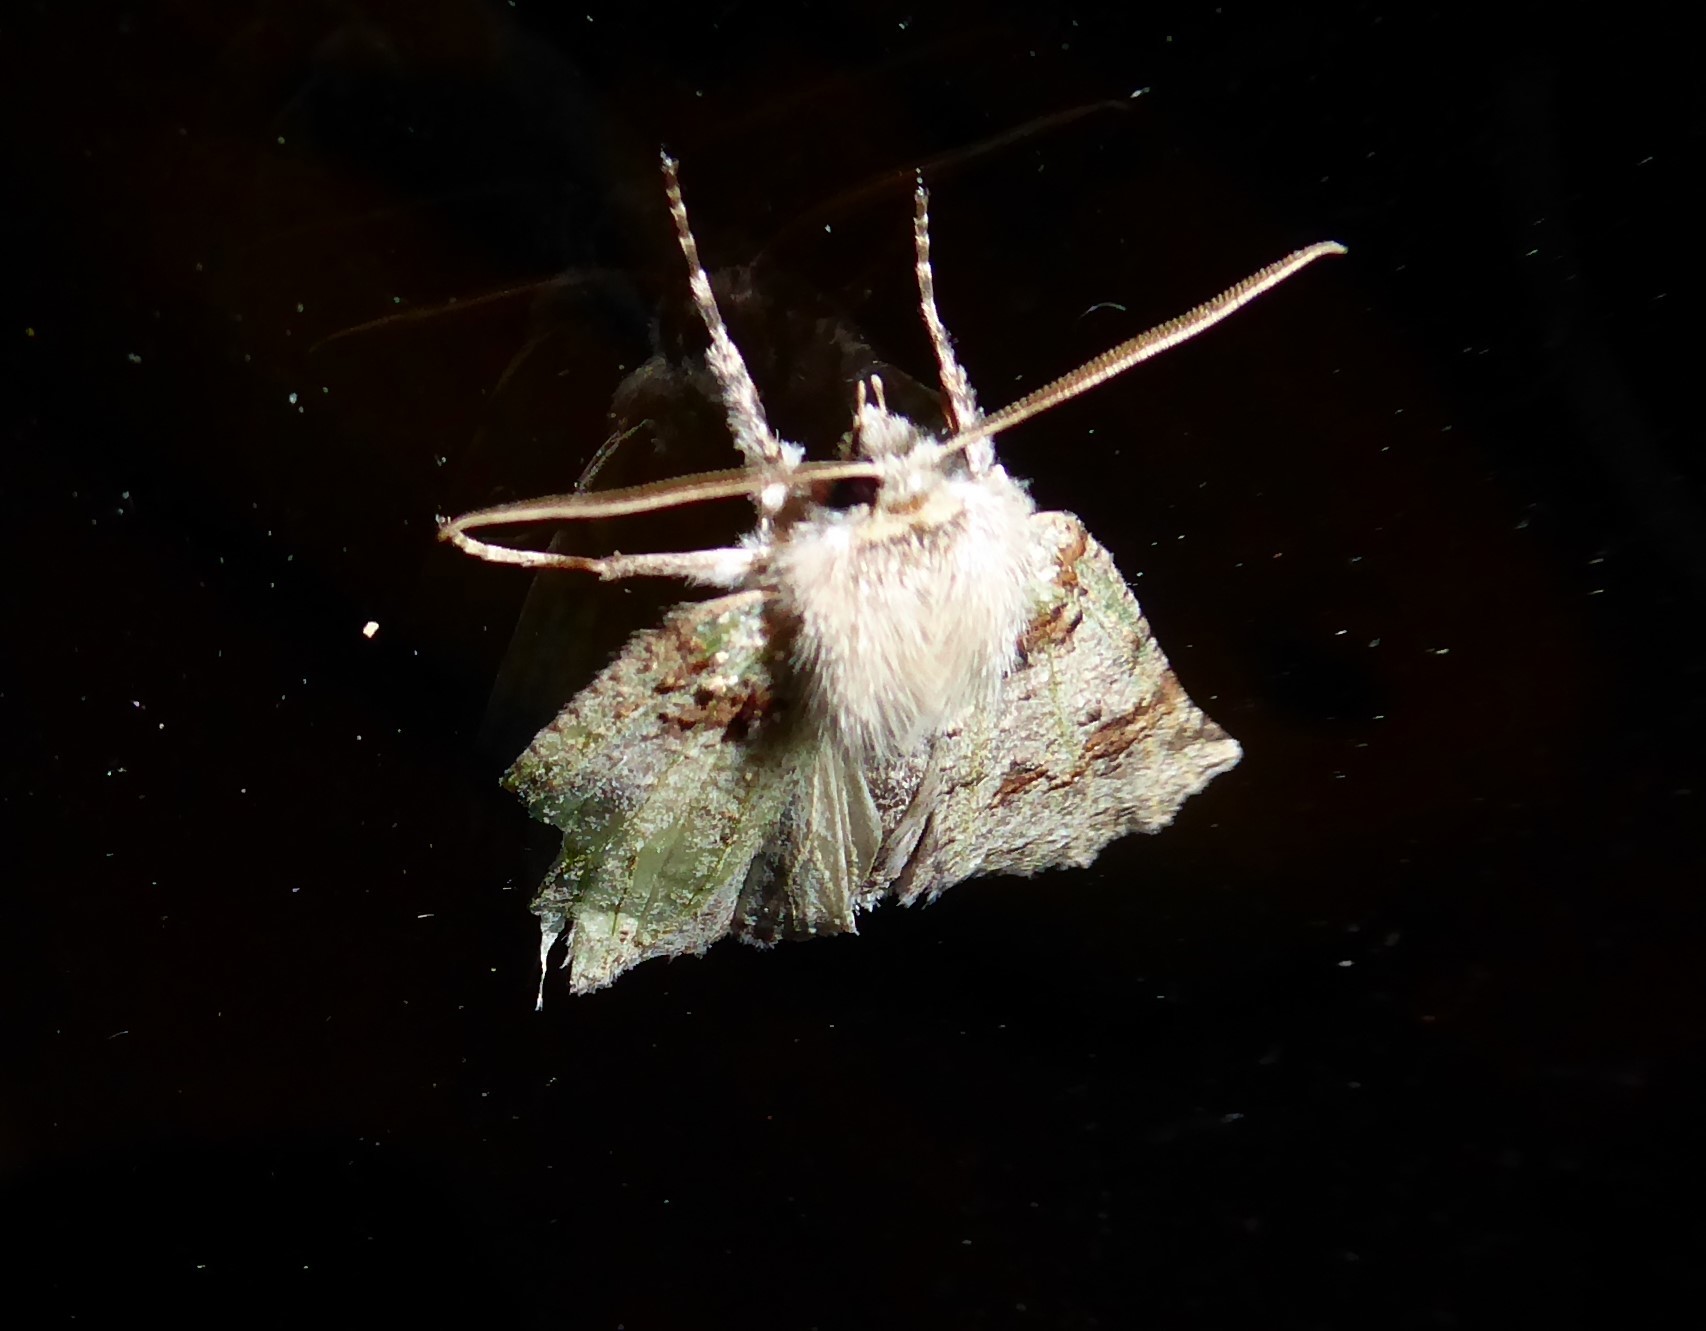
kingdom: Animalia
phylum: Arthropoda
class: Insecta
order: Lepidoptera
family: Geometridae
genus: Declana
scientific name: Declana floccosa
